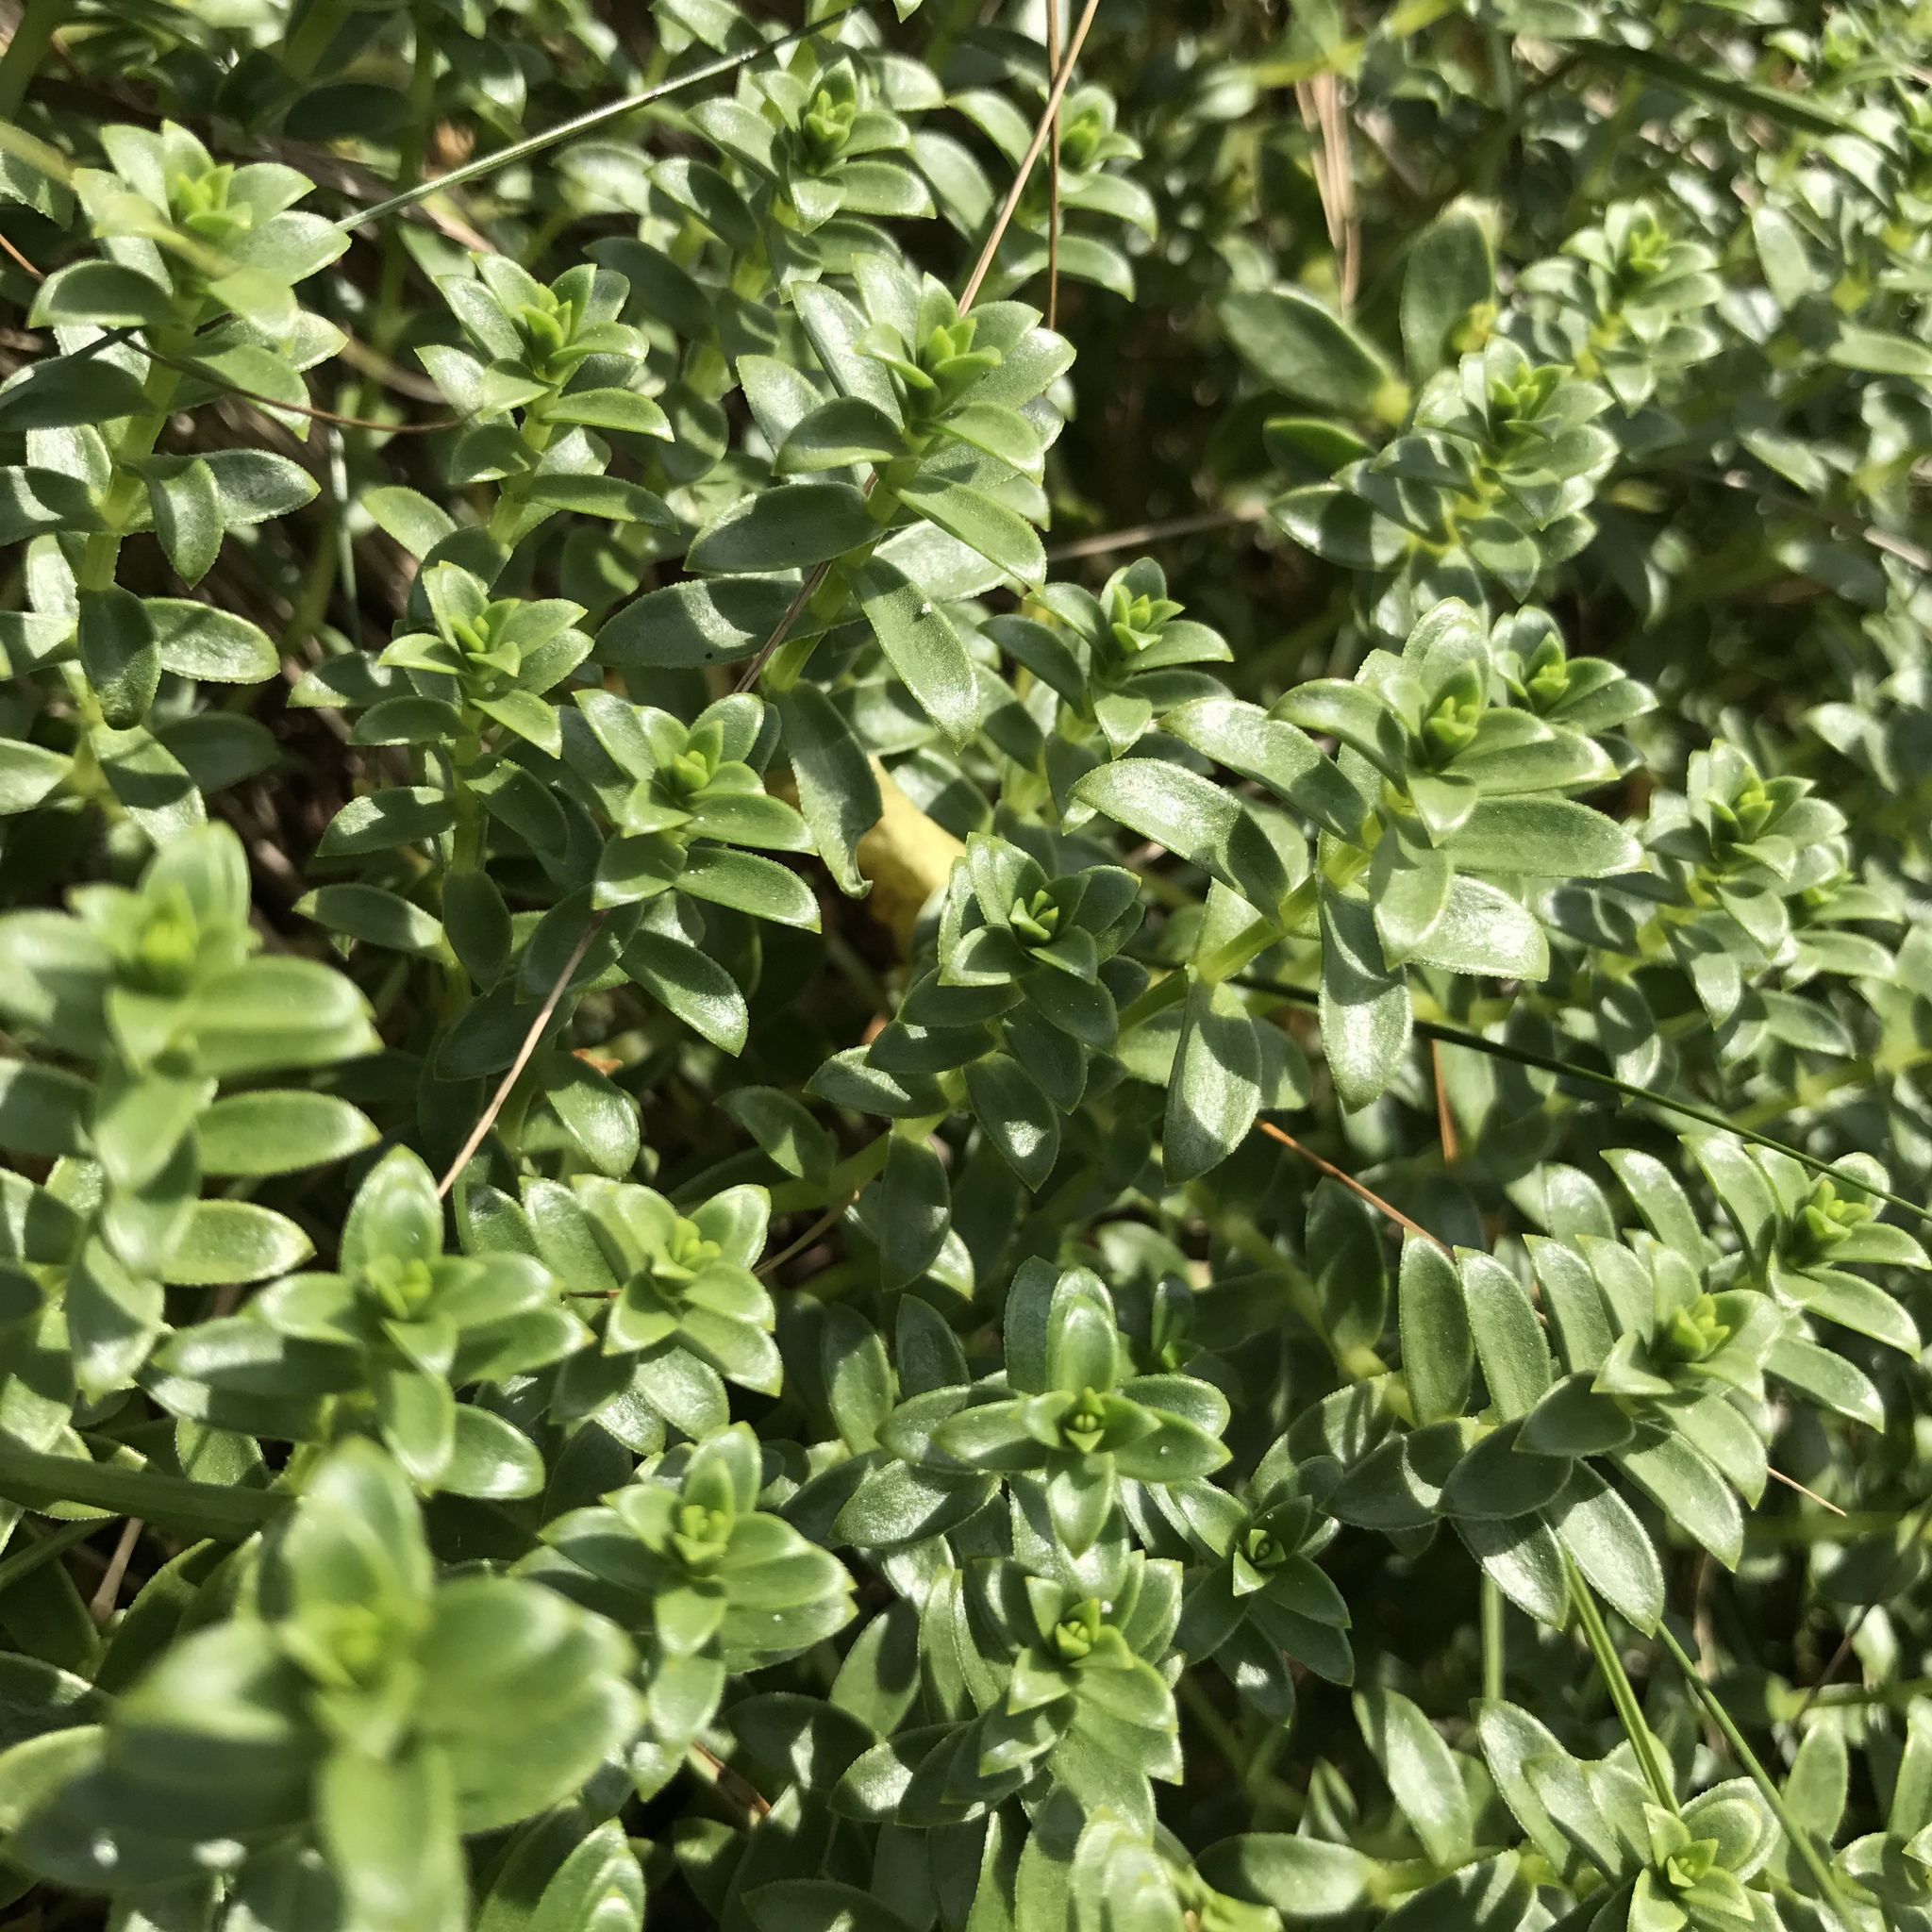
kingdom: Plantae
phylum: Tracheophyta
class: Magnoliopsida
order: Caryophyllales
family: Caryophyllaceae
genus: Honckenya
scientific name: Honckenya peploides
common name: Sea sandwort
